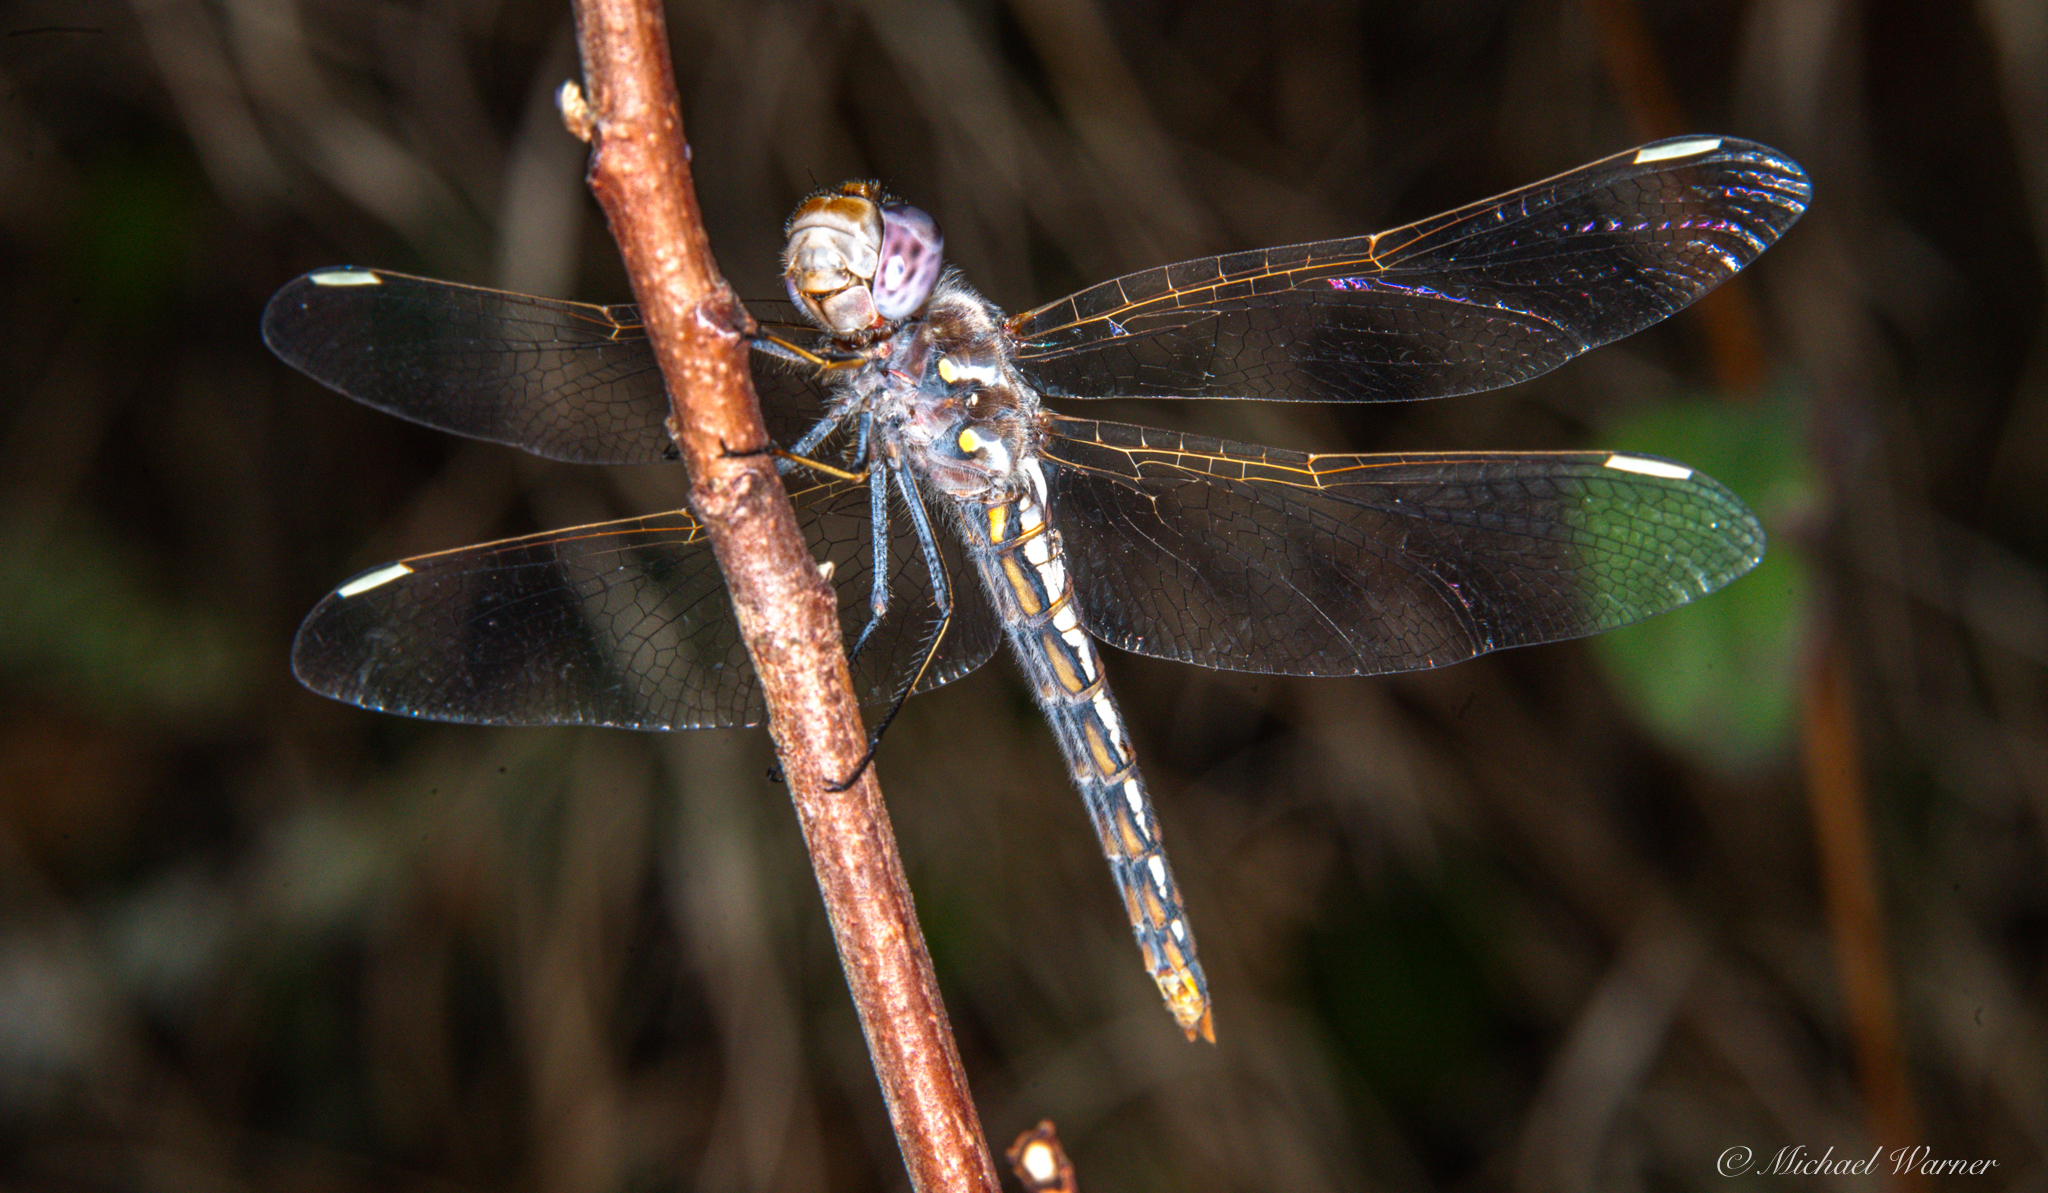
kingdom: Animalia
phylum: Arthropoda
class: Insecta
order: Odonata
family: Libellulidae
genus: Sympetrum
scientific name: Sympetrum corruptum
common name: Variegated meadowhawk
